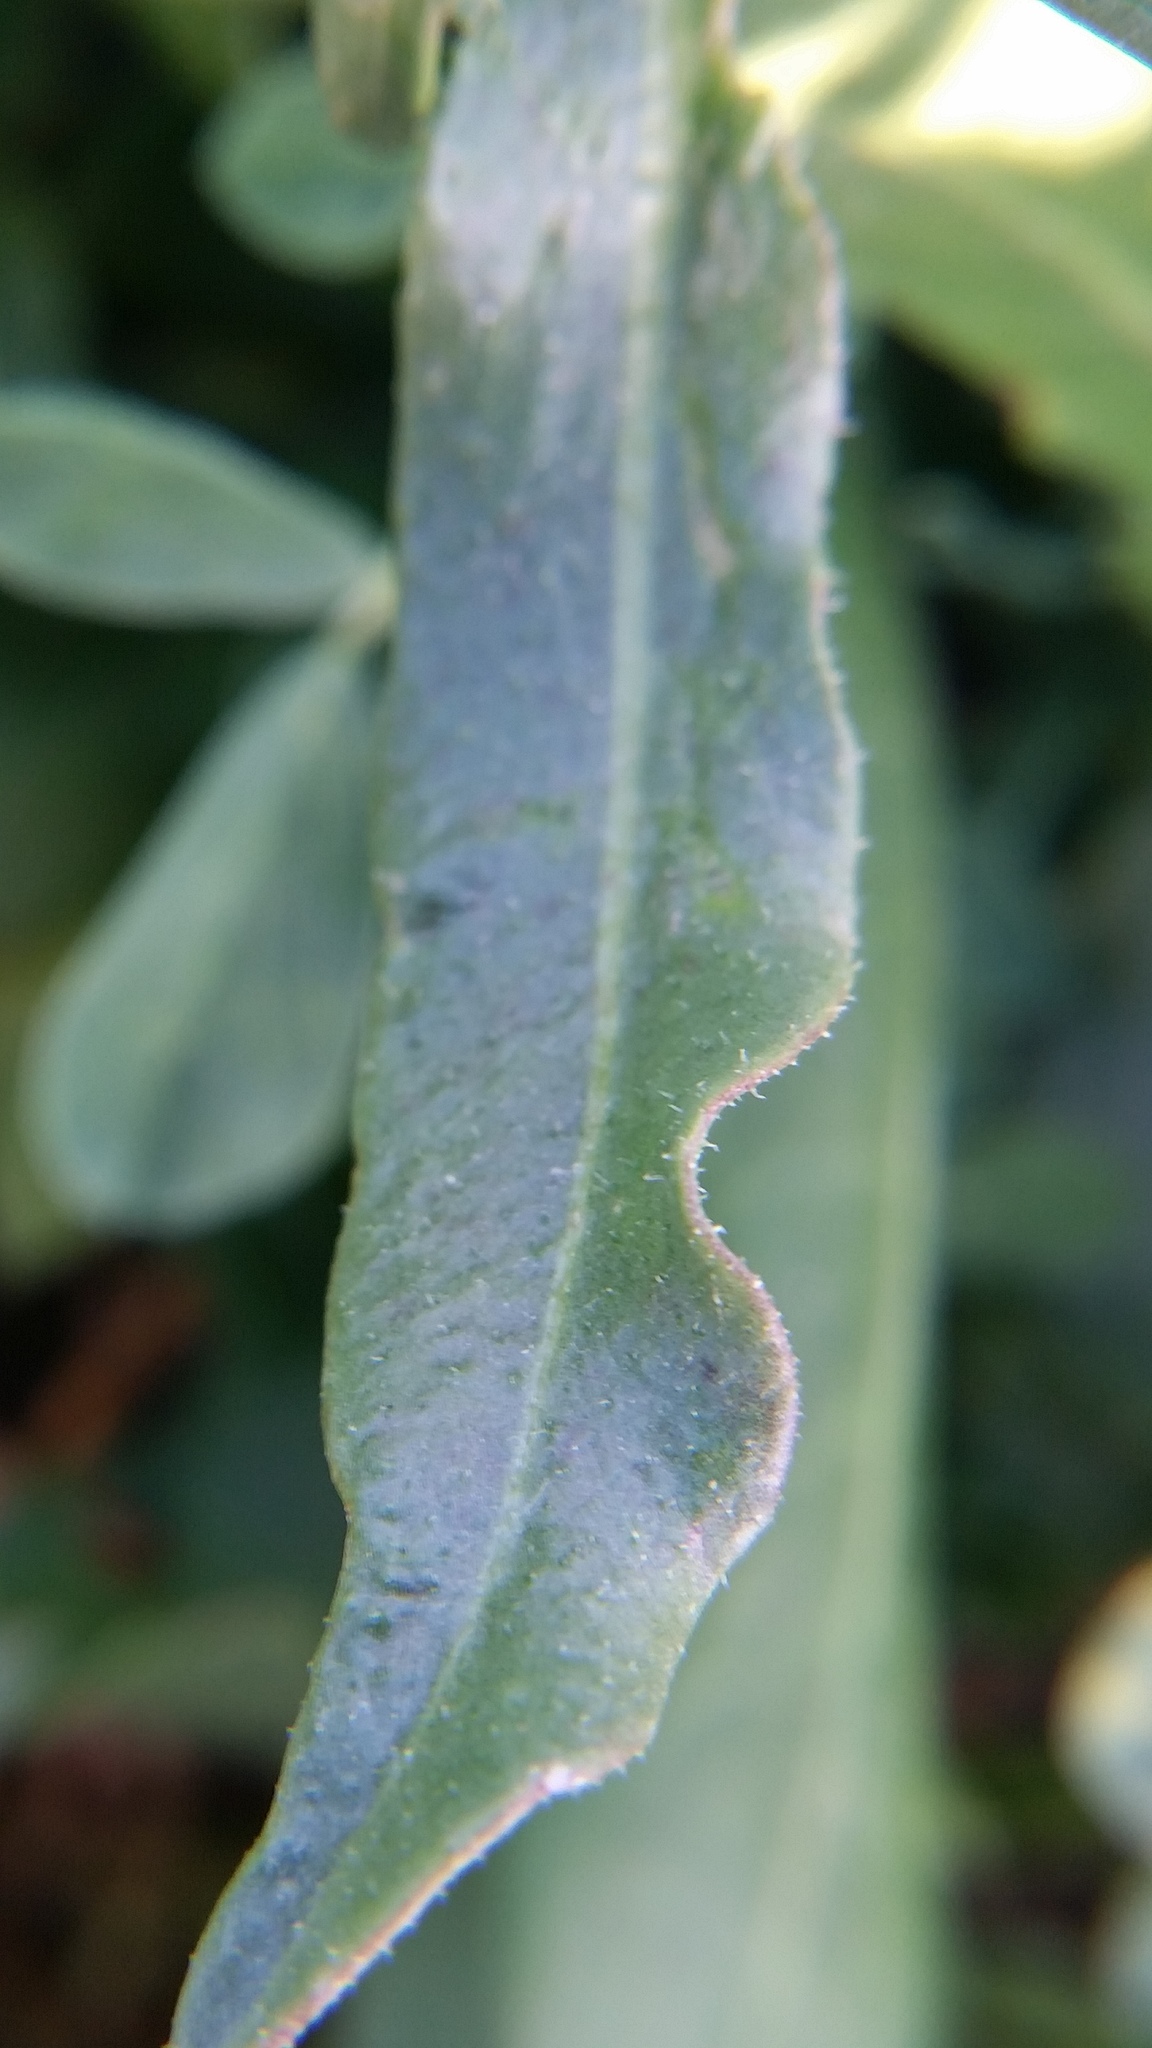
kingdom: Plantae
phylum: Tracheophyta
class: Magnoliopsida
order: Asterales
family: Asteraceae
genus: Cichorium
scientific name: Cichorium intybus
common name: Chicory
